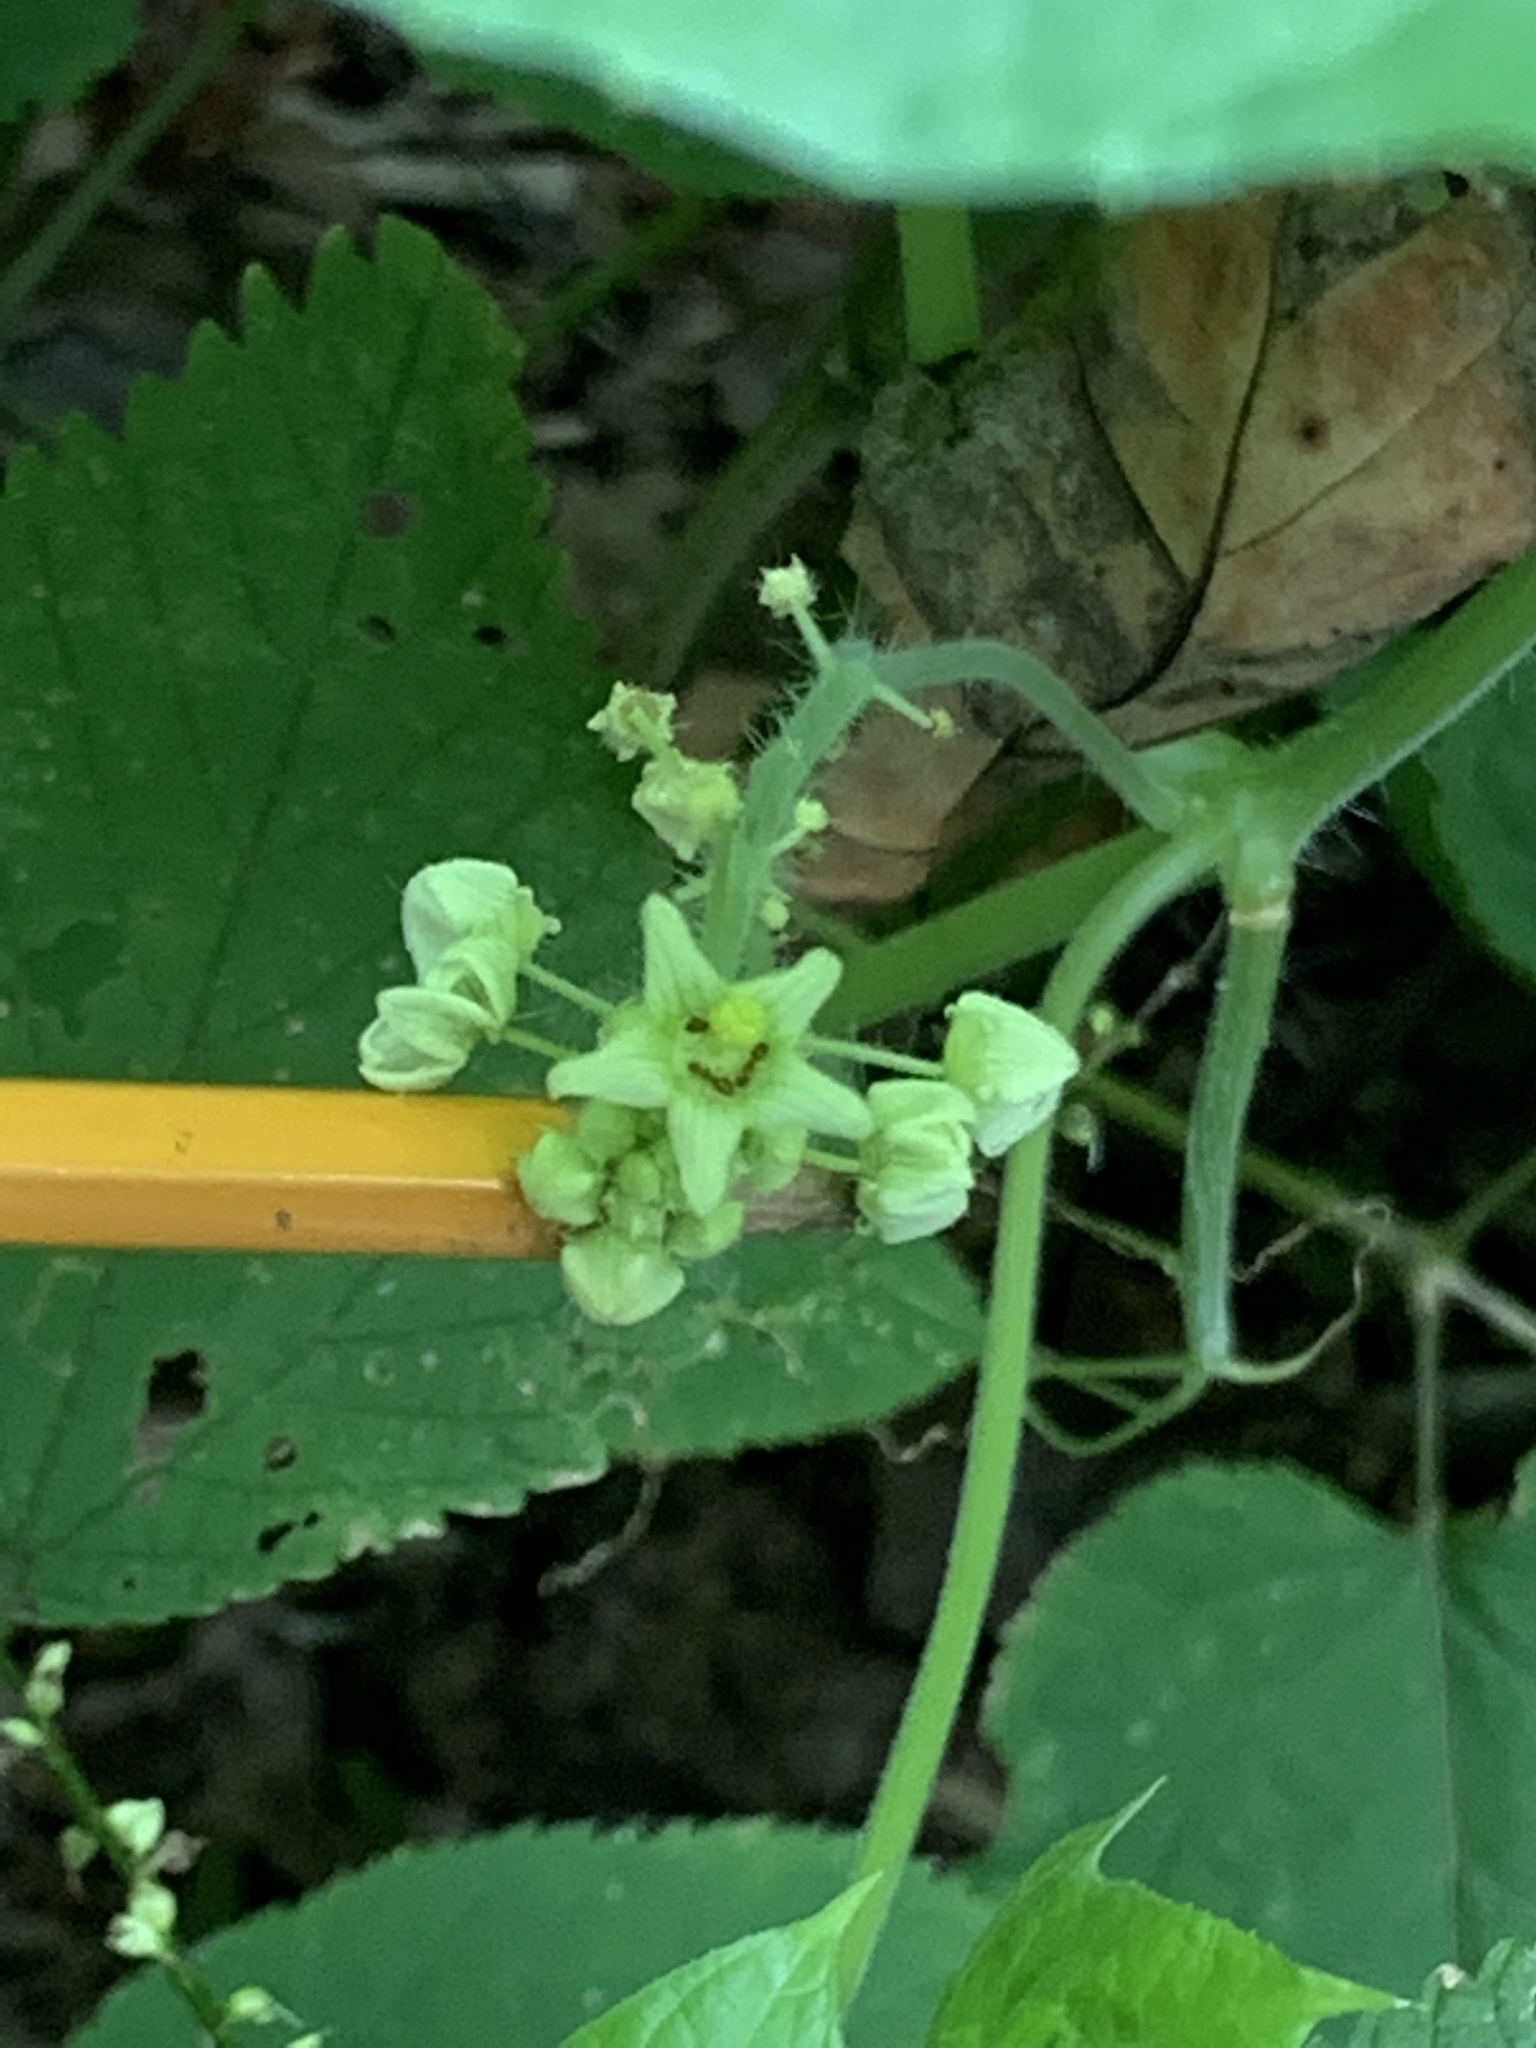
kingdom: Plantae
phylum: Tracheophyta
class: Magnoliopsida
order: Cucurbitales
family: Cucurbitaceae
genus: Sicyos
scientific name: Sicyos angulatus
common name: Angled burr cucumber
